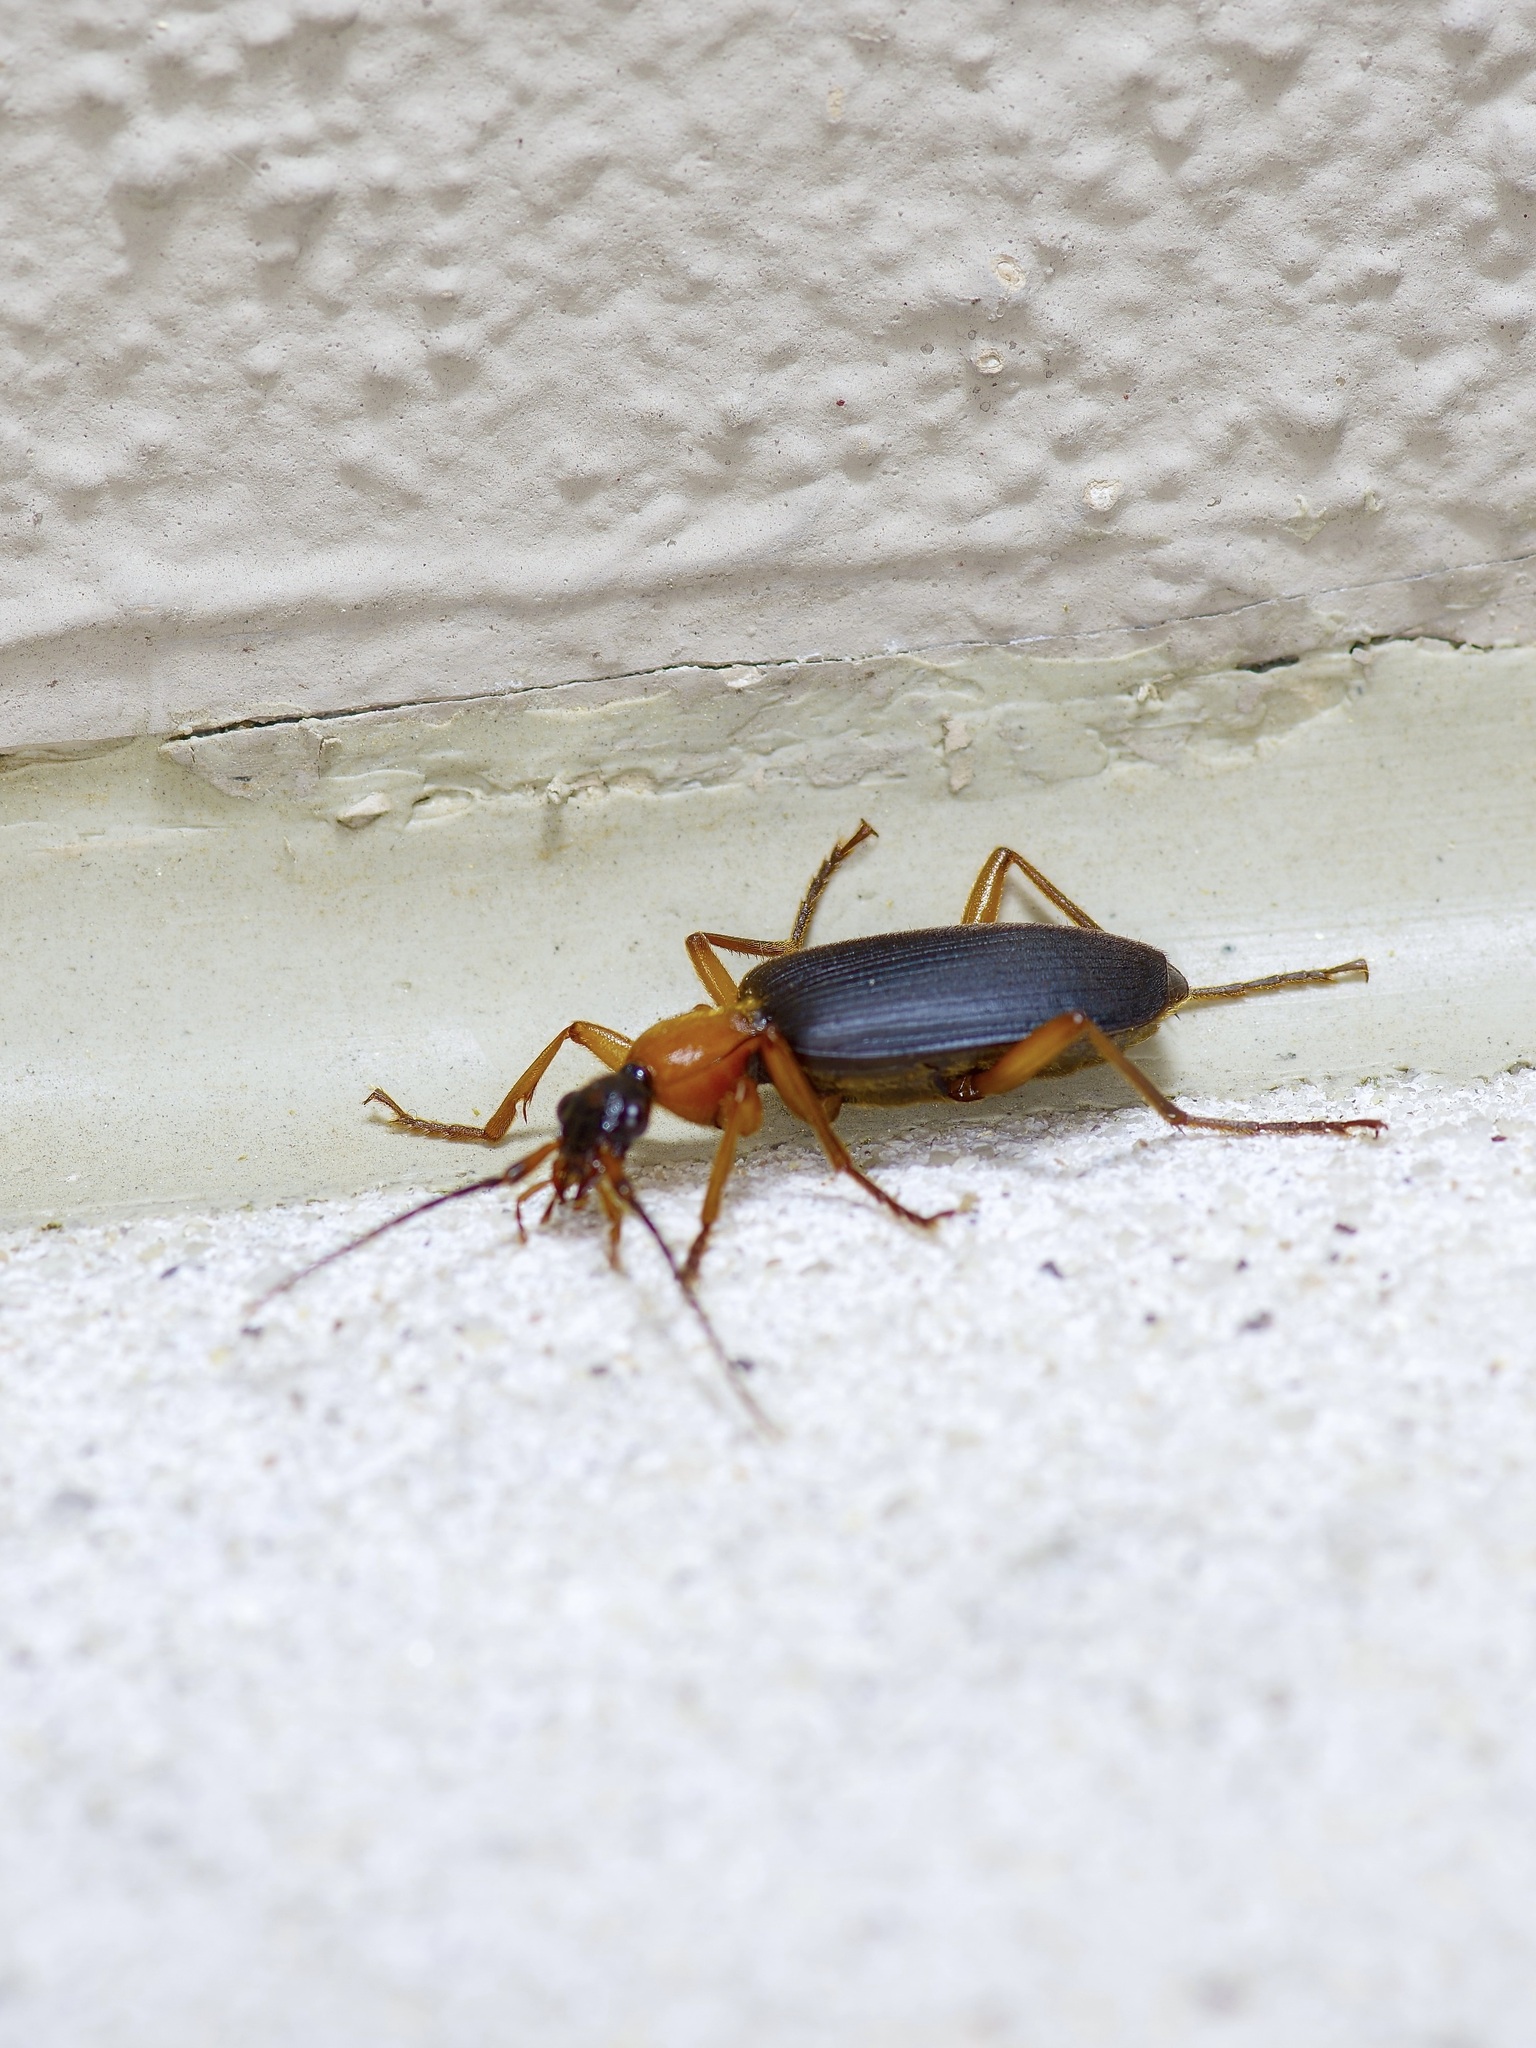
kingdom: Animalia
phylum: Arthropoda
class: Insecta
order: Coleoptera
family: Carabidae
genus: Galerita
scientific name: Galerita bicolor
